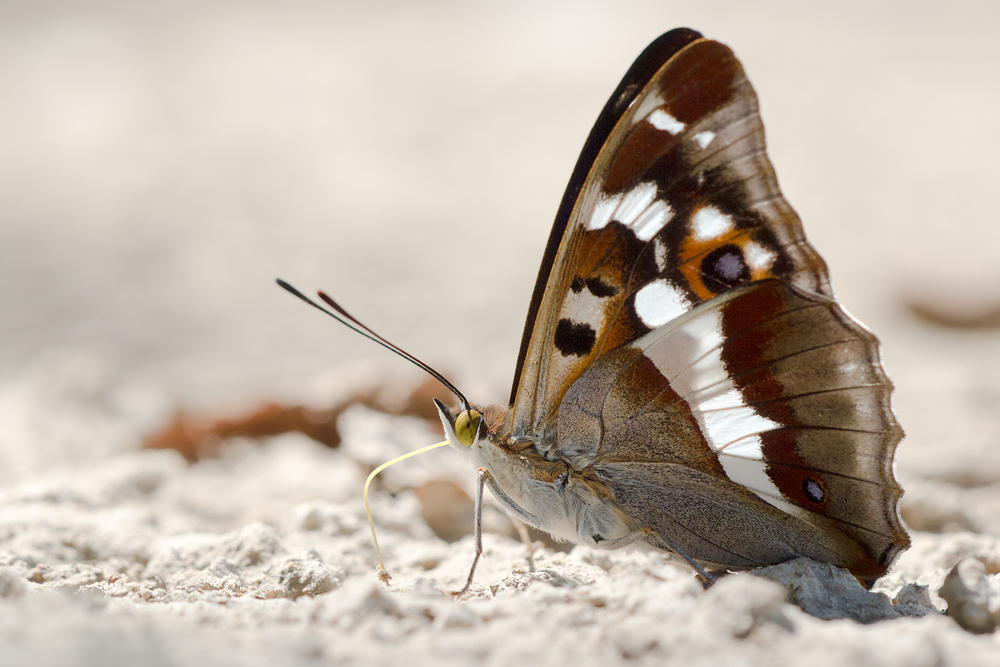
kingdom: Animalia
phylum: Arthropoda
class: Insecta
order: Lepidoptera
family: Nymphalidae
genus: Apatura
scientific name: Apatura iris
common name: Purple emperor
